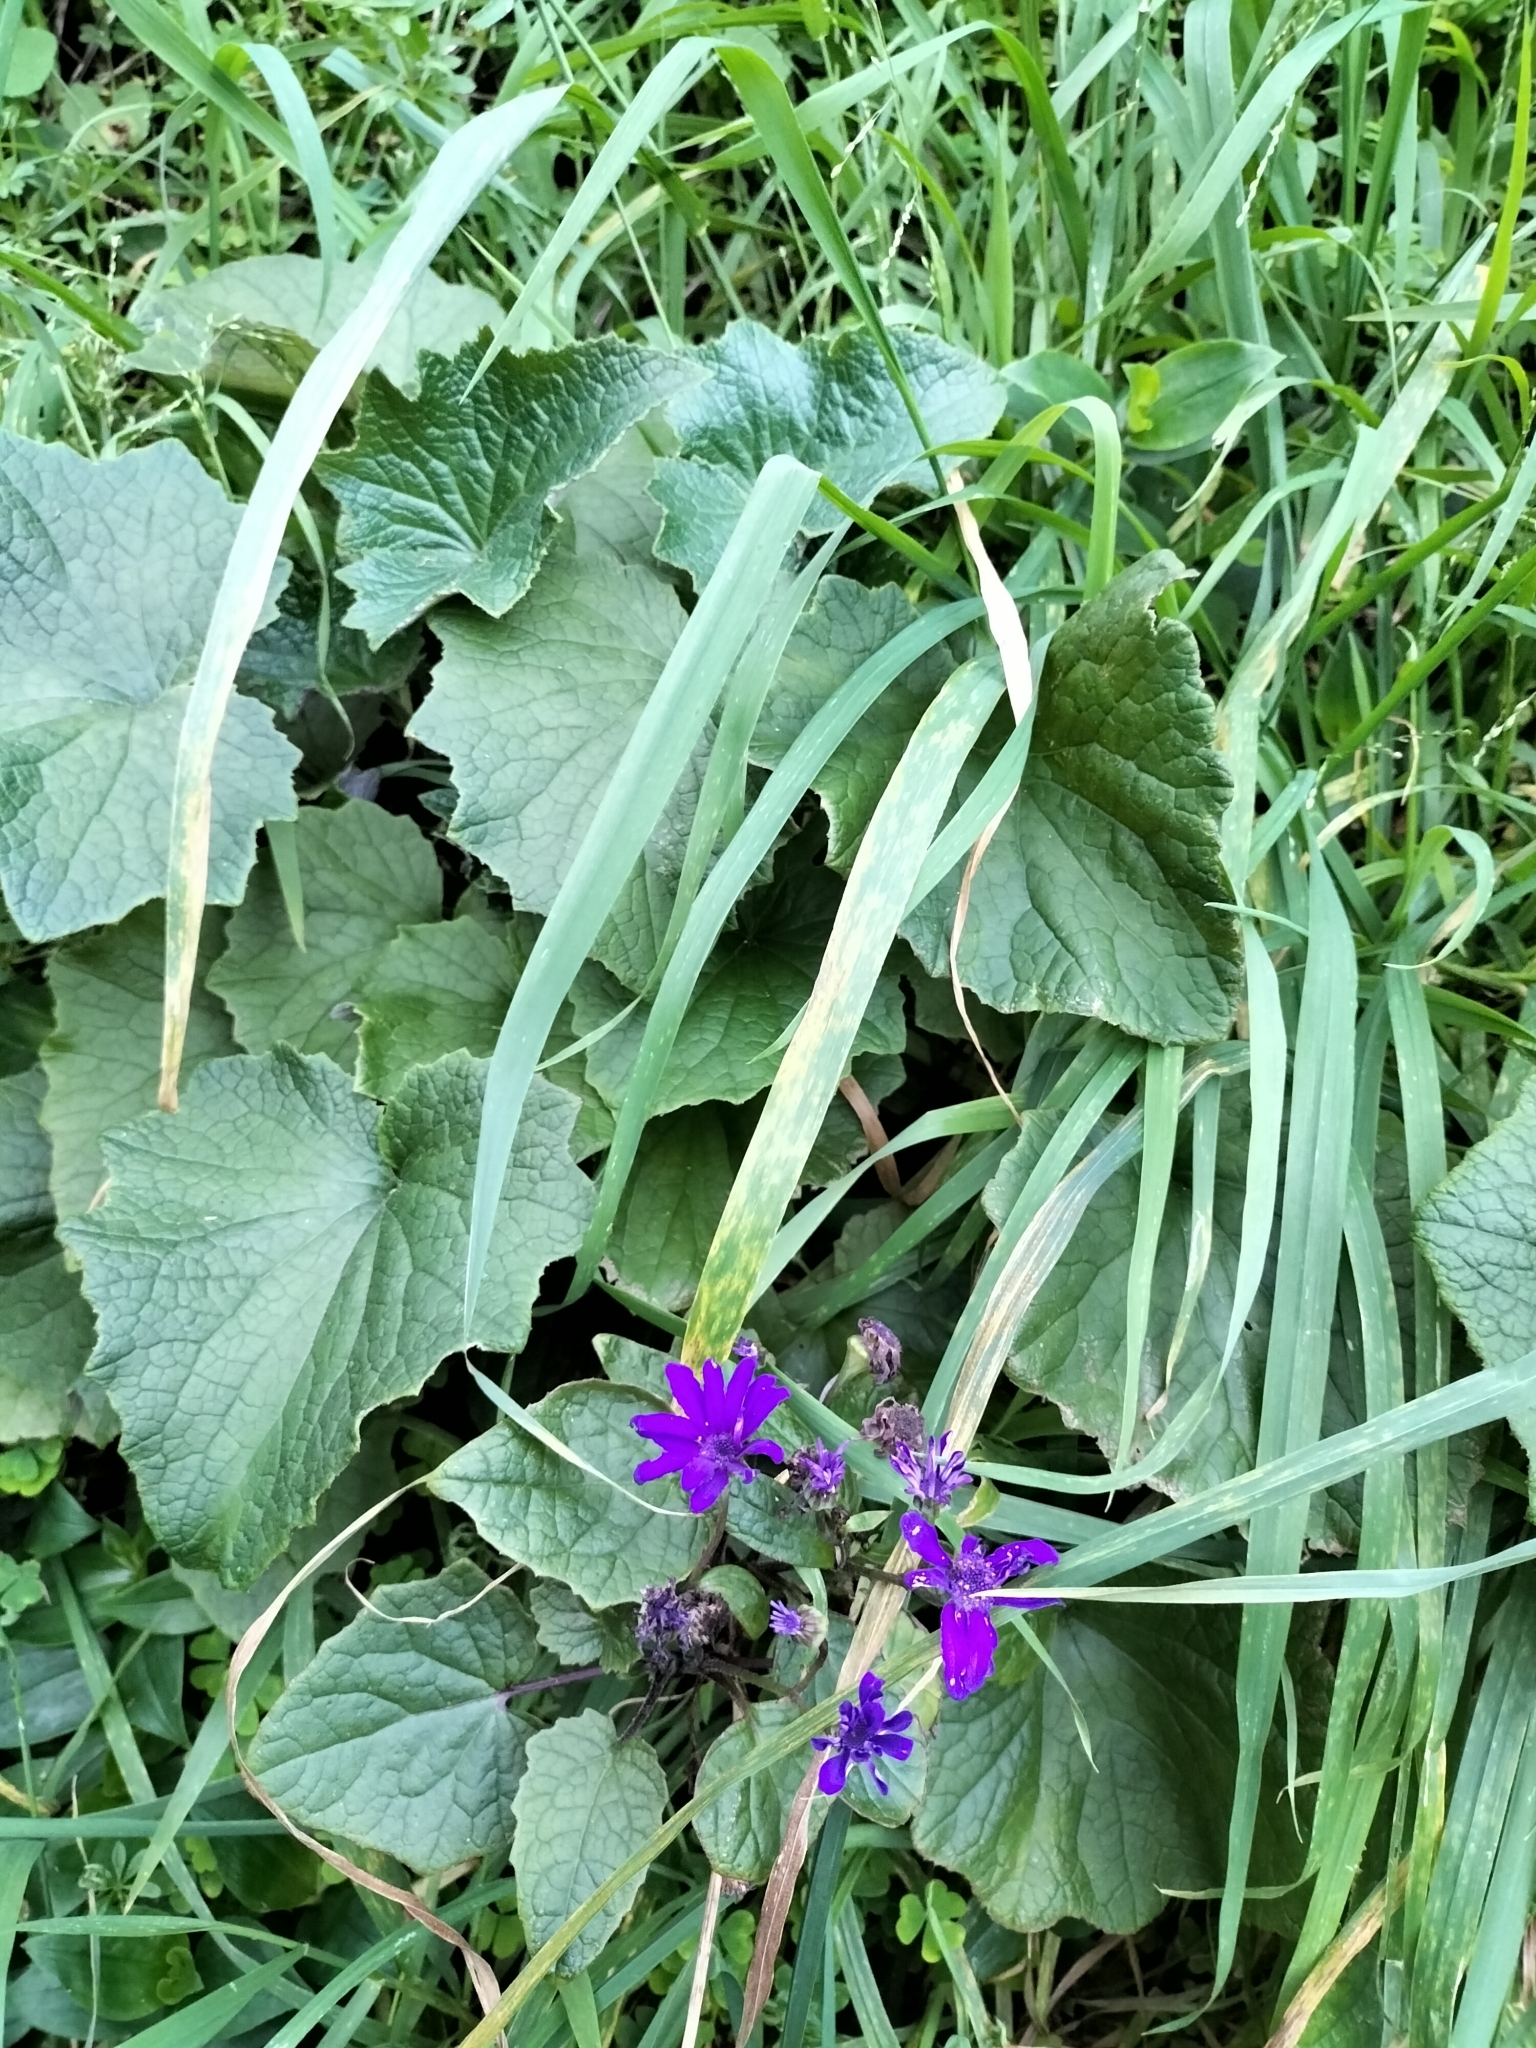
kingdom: Plantae
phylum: Tracheophyta
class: Magnoliopsida
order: Asterales
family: Asteraceae
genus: Pericallis
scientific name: Pericallis hybrida
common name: Cineraria
